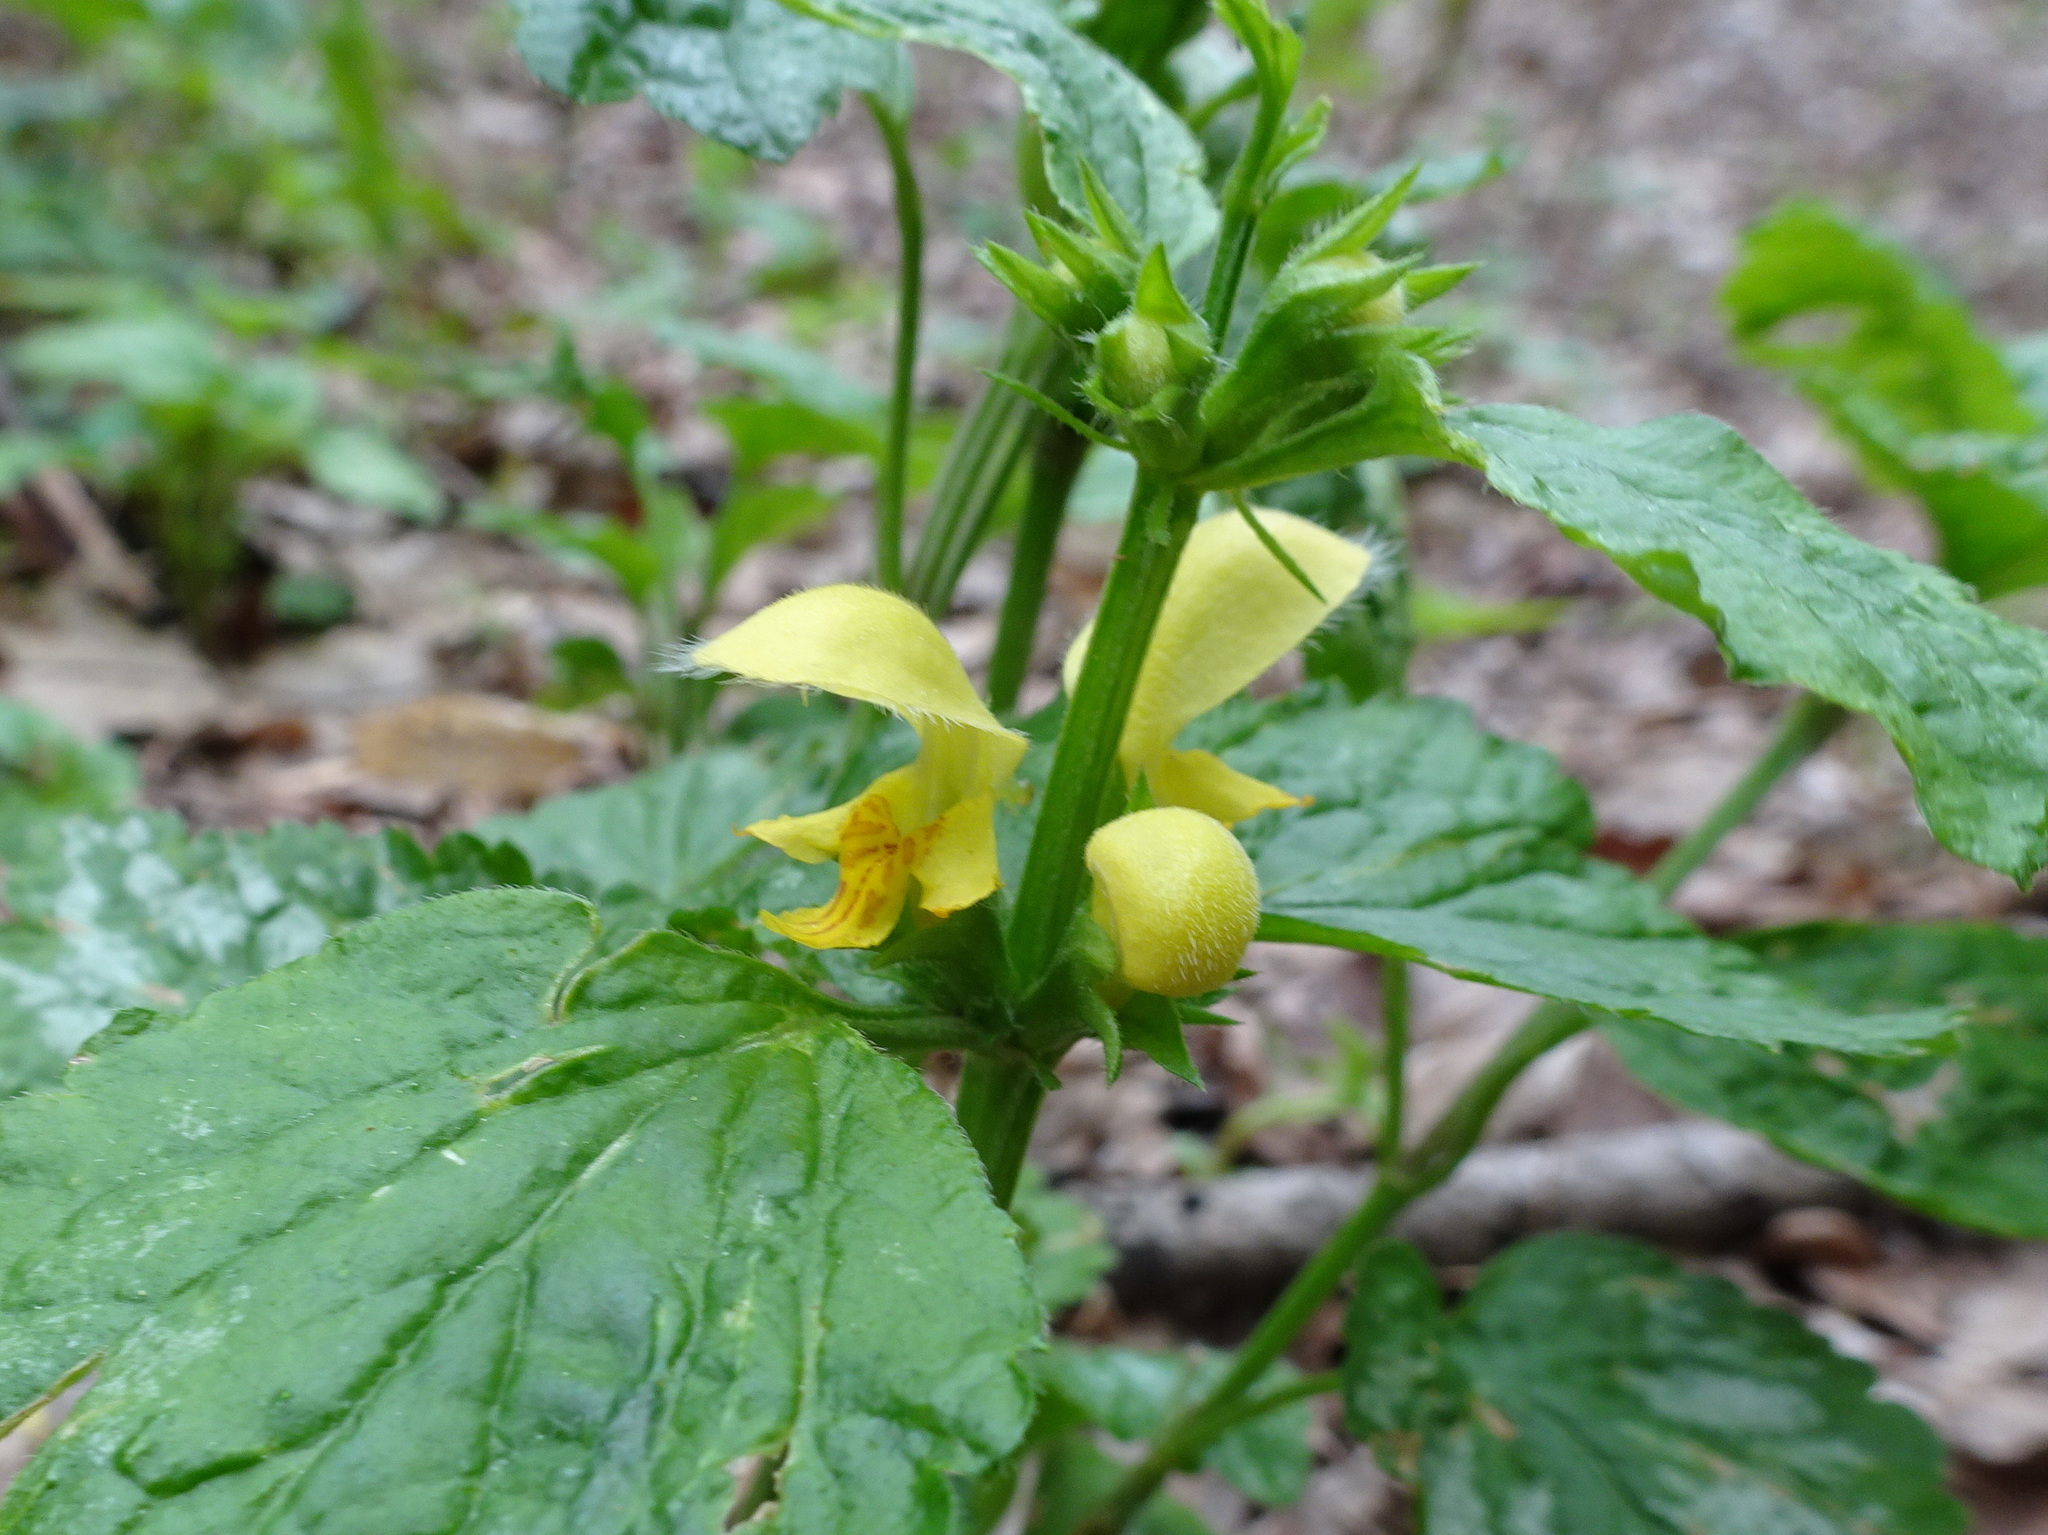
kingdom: Plantae
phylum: Tracheophyta
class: Magnoliopsida
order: Lamiales
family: Lamiaceae
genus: Lamium
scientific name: Lamium galeobdolon
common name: Yellow archangel
